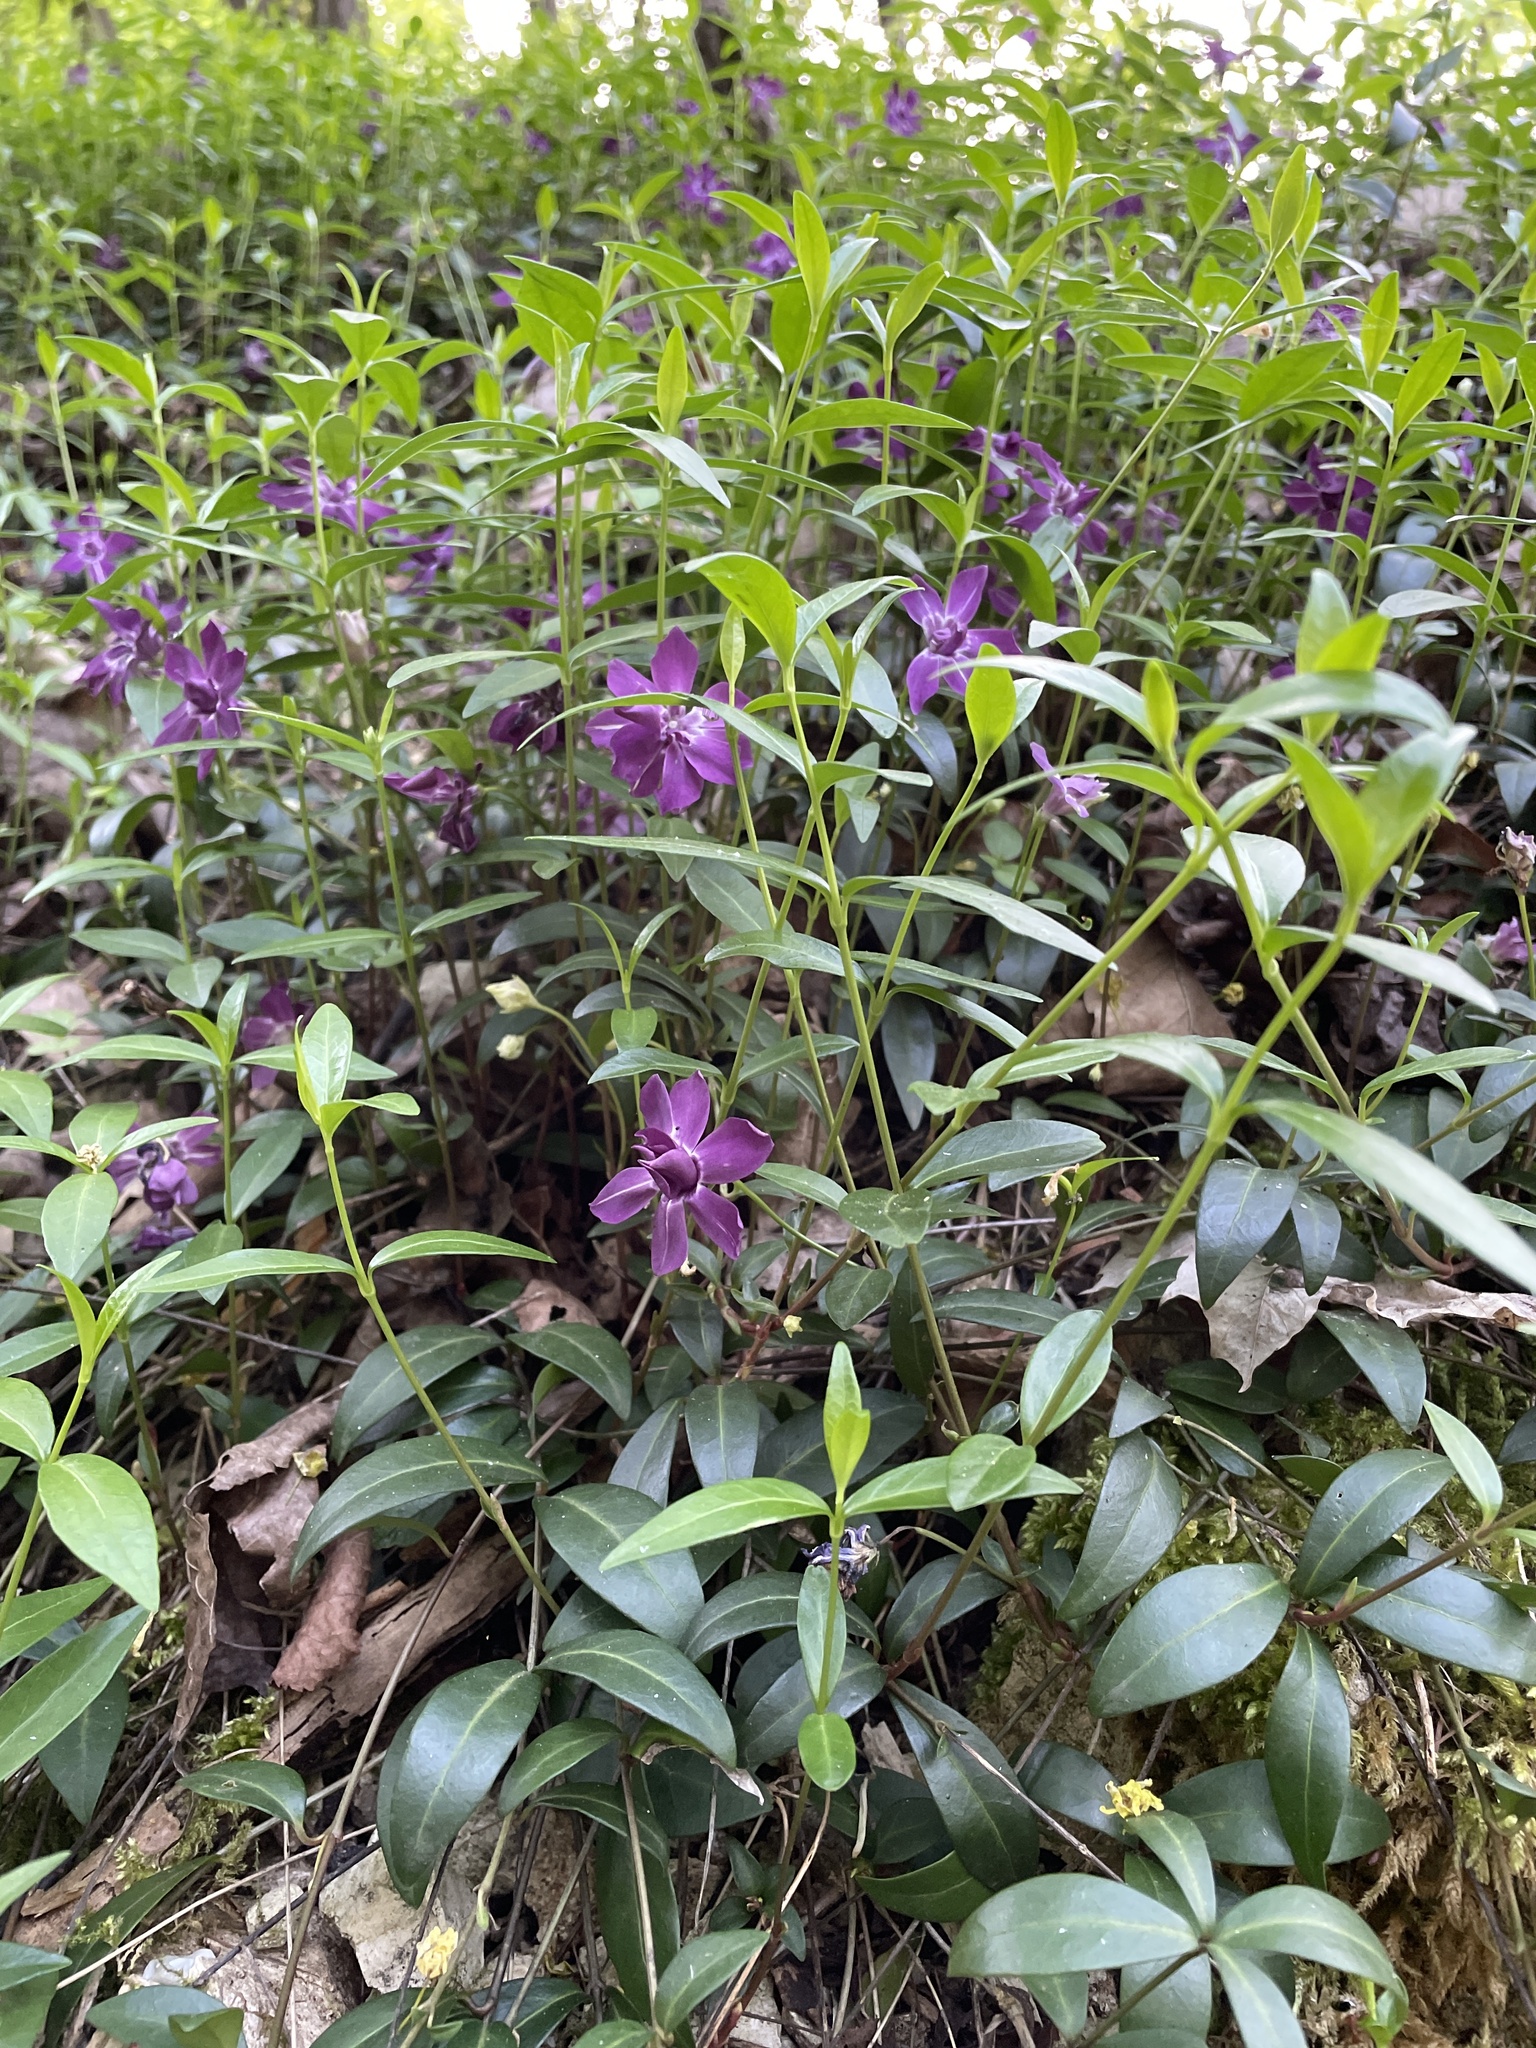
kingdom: Plantae
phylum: Tracheophyta
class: Magnoliopsida
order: Gentianales
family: Apocynaceae
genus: Vinca
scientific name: Vinca minor
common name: Lesser periwinkle
